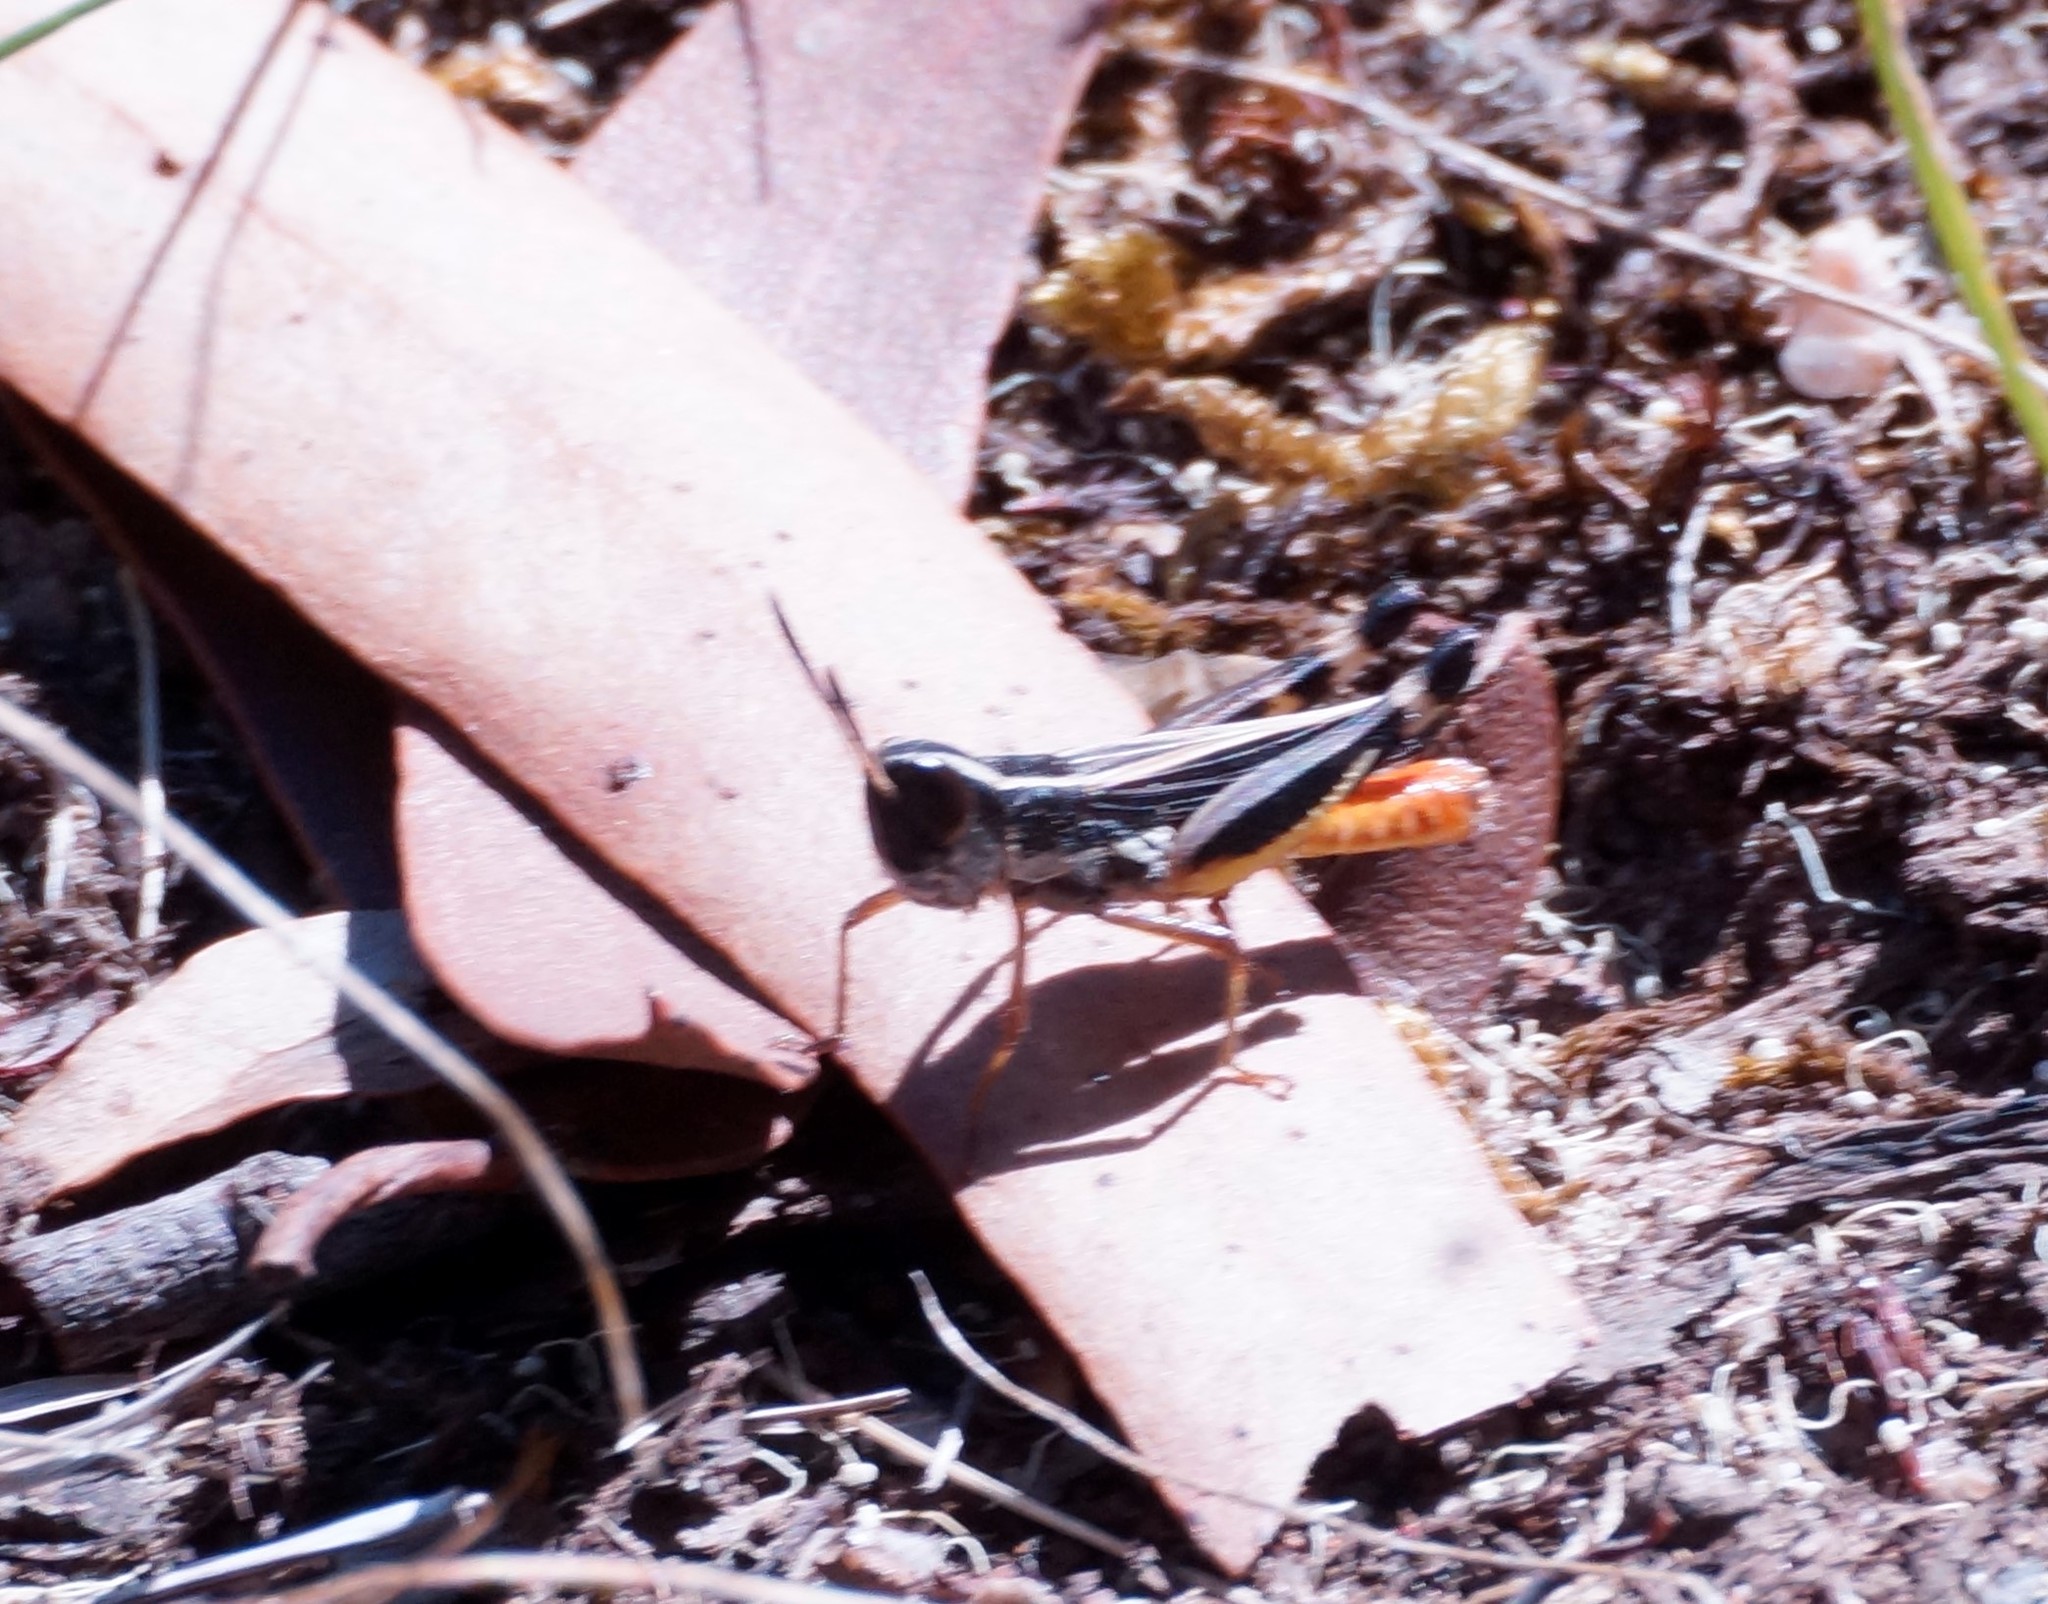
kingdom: Animalia
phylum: Arthropoda
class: Insecta
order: Orthoptera
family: Acrididae
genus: Macrotona
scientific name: Macrotona australis
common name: Common macrotona
